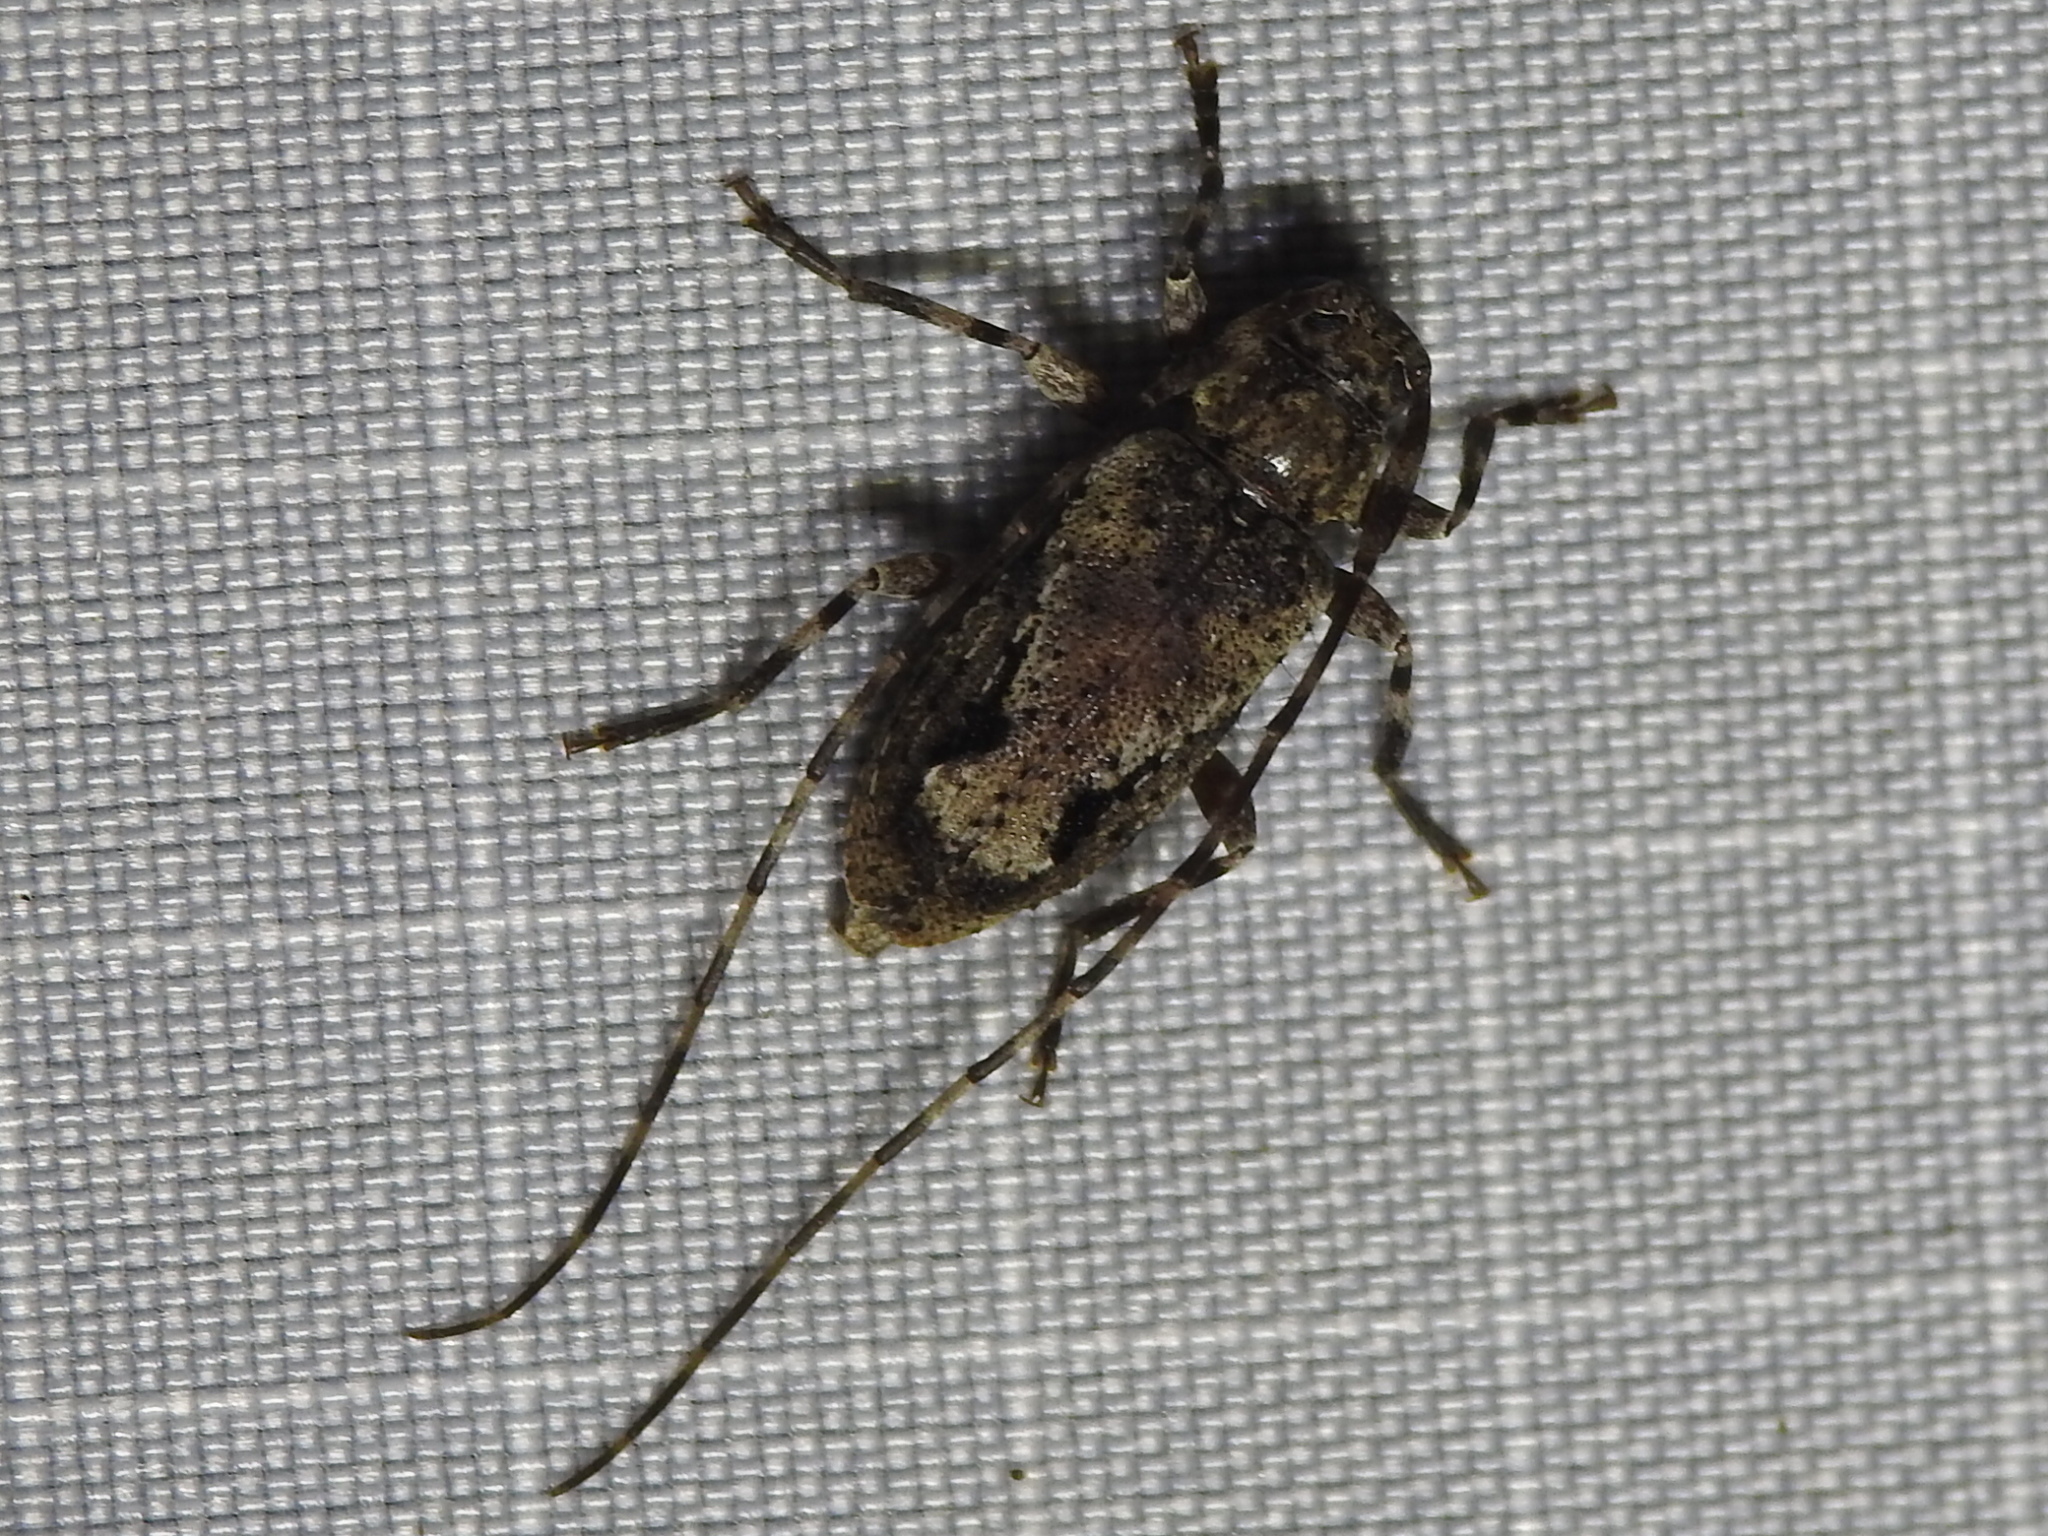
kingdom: Animalia
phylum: Arthropoda
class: Insecta
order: Coleoptera
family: Cerambycidae
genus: Eutrichillus
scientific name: Eutrichillus canescens
